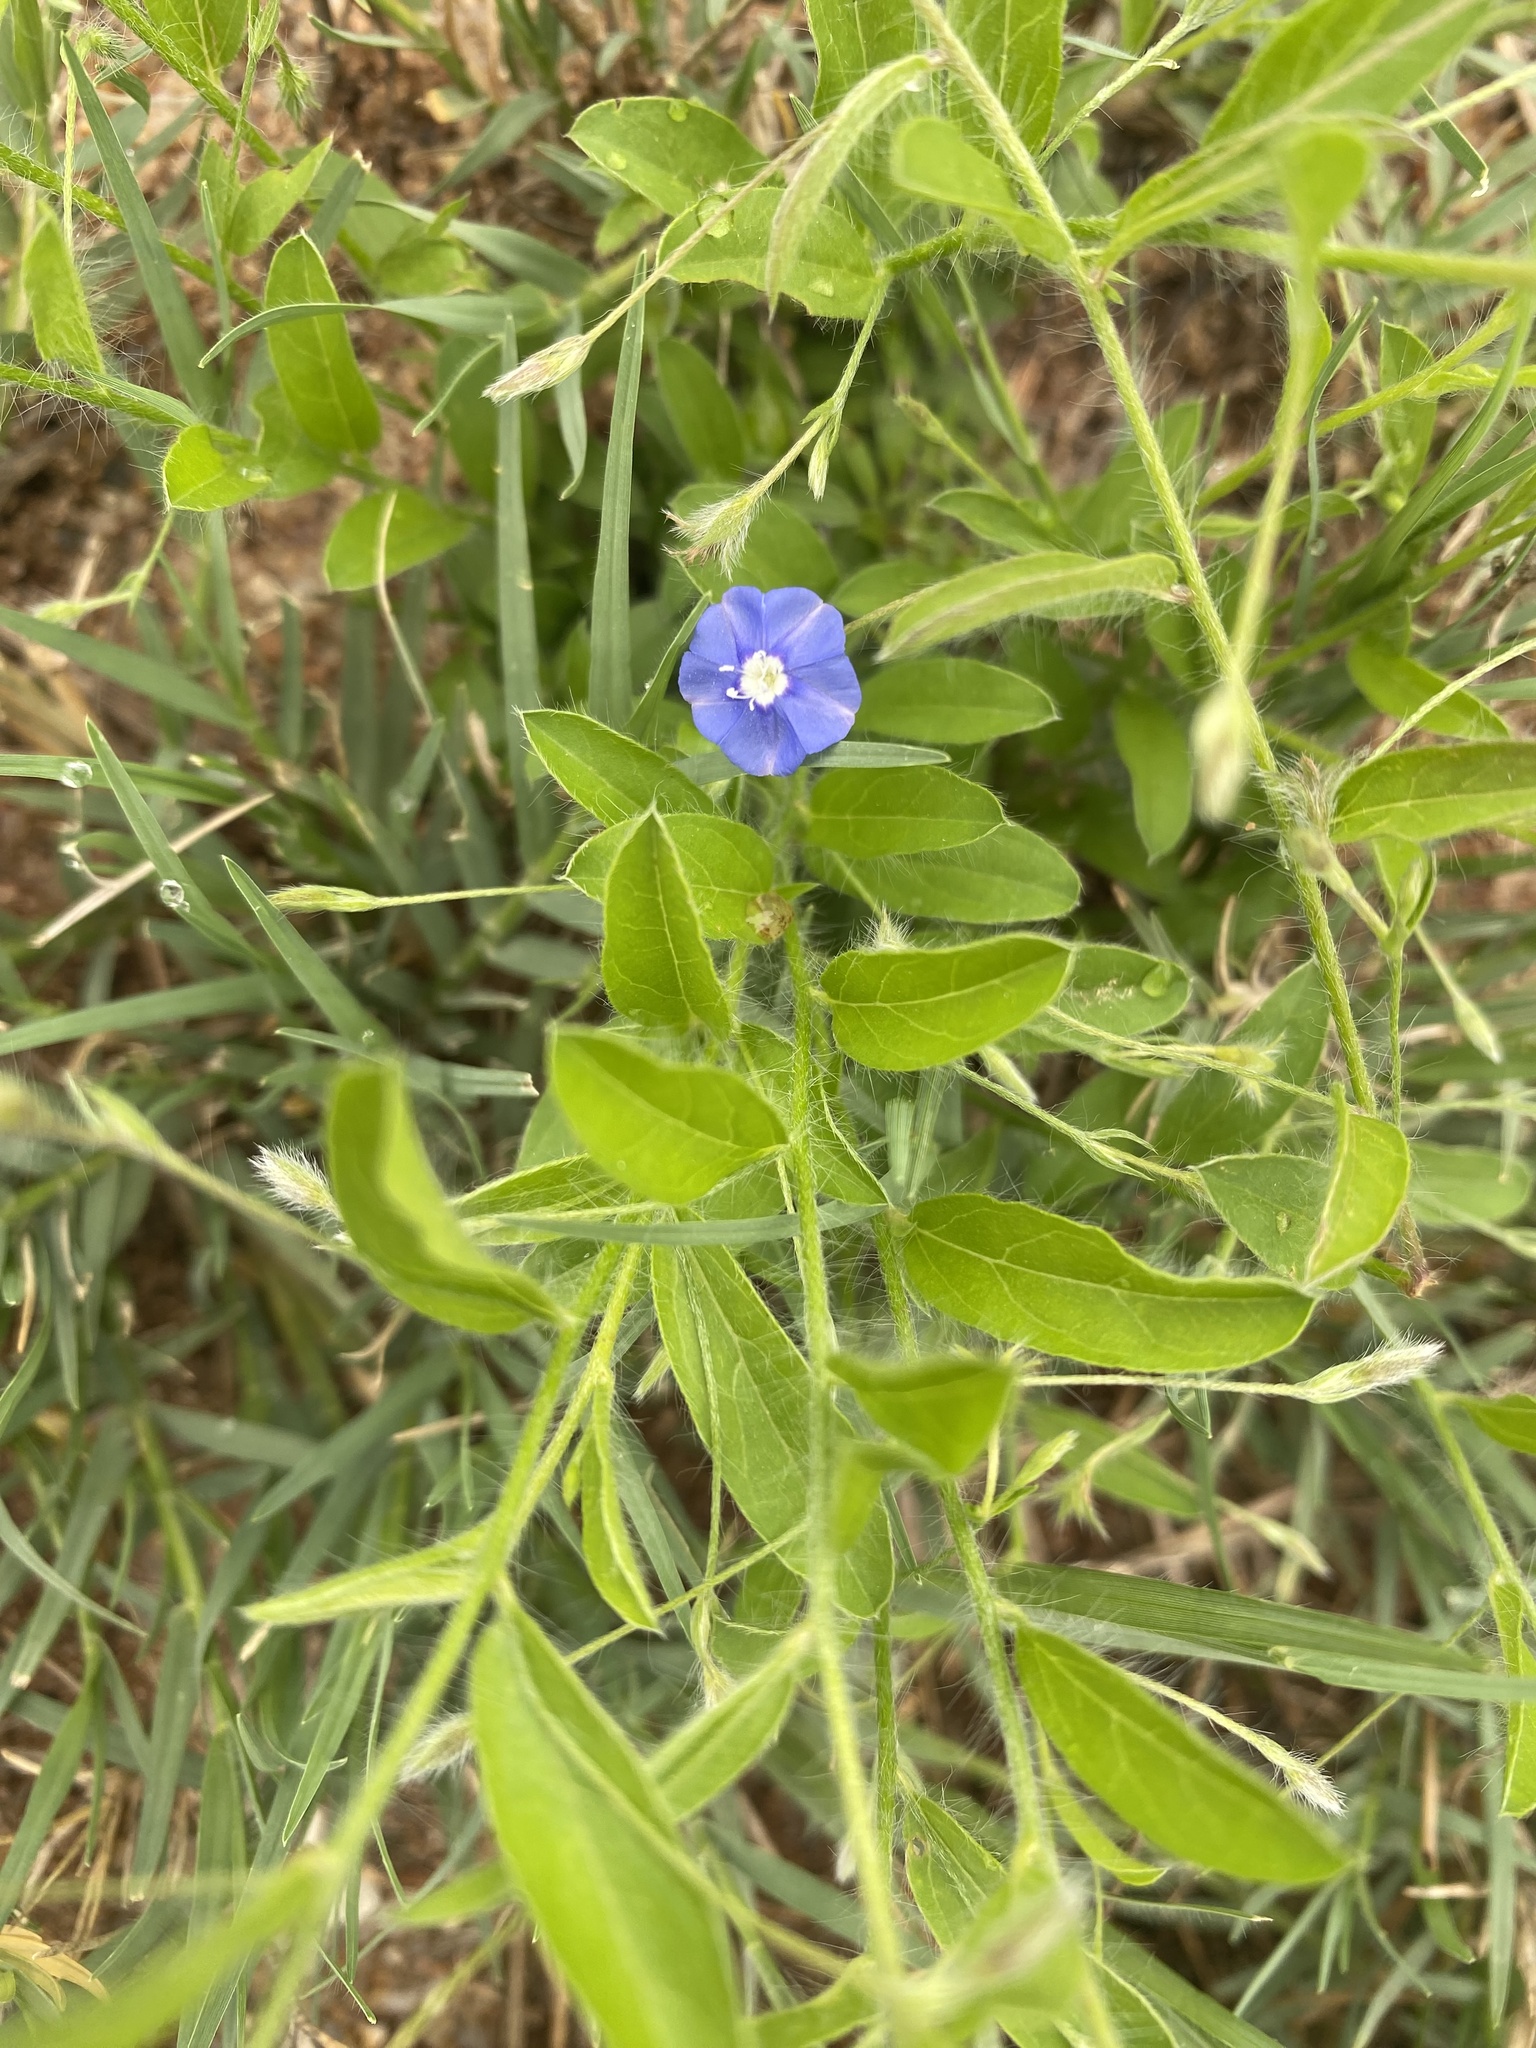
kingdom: Plantae
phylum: Tracheophyta
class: Magnoliopsida
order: Solanales
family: Convolvulaceae
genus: Evolvulus
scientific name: Evolvulus alsinoides
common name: Slender dwarf morning-glory
